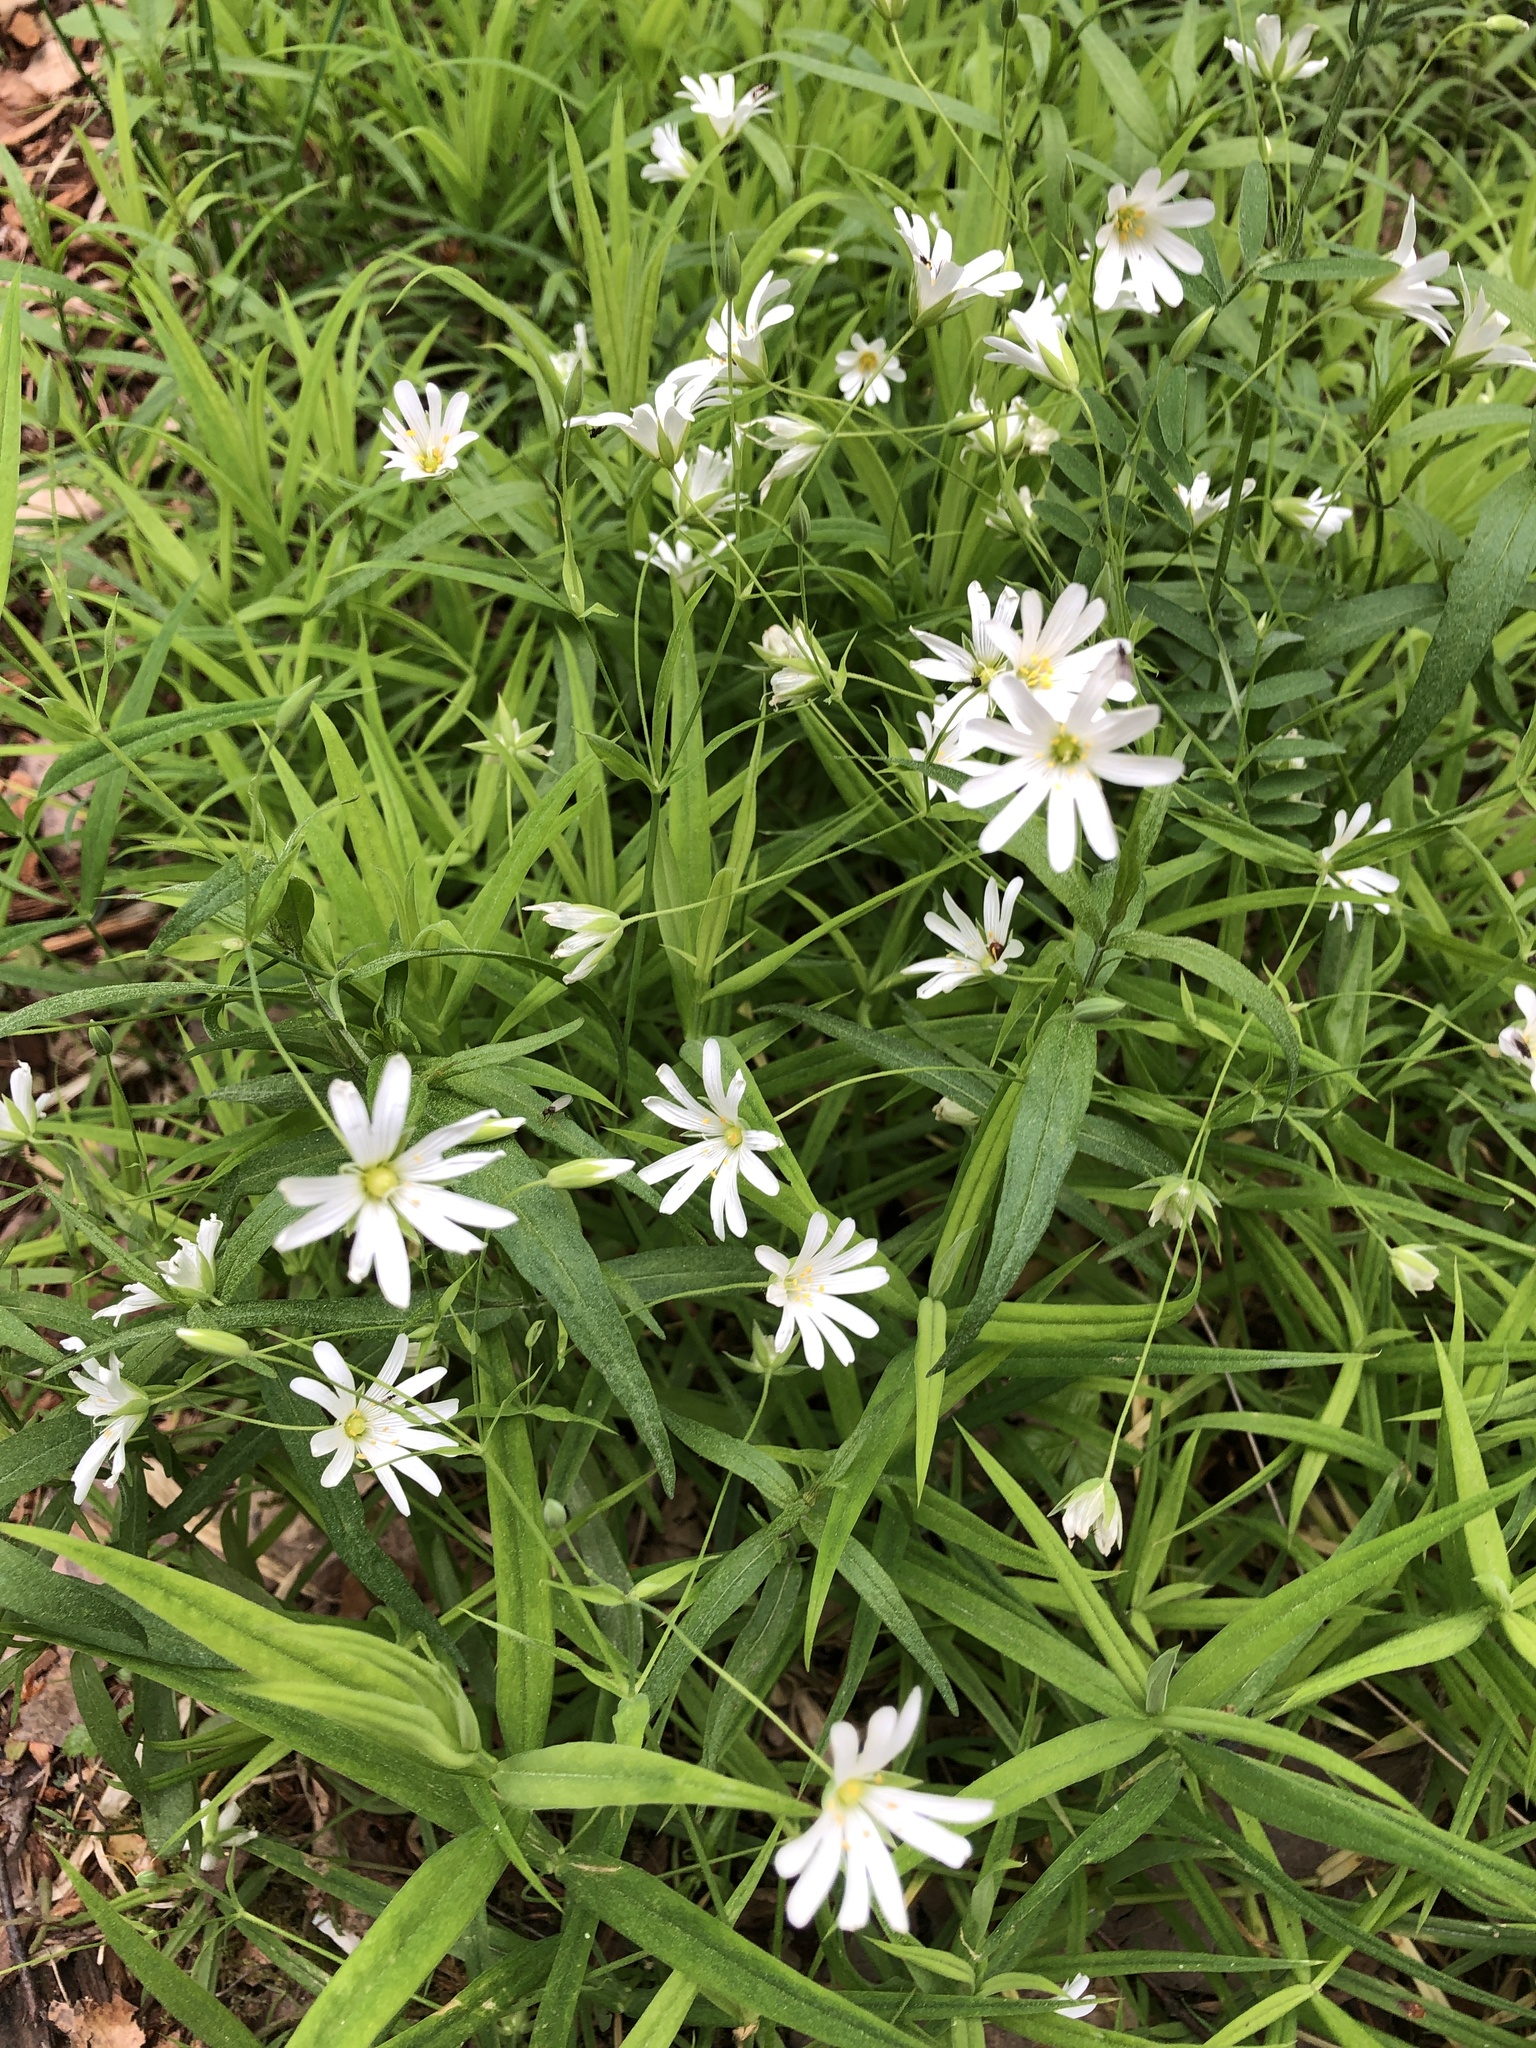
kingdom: Plantae
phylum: Tracheophyta
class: Magnoliopsida
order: Caryophyllales
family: Caryophyllaceae
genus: Rabelera
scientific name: Rabelera holostea
